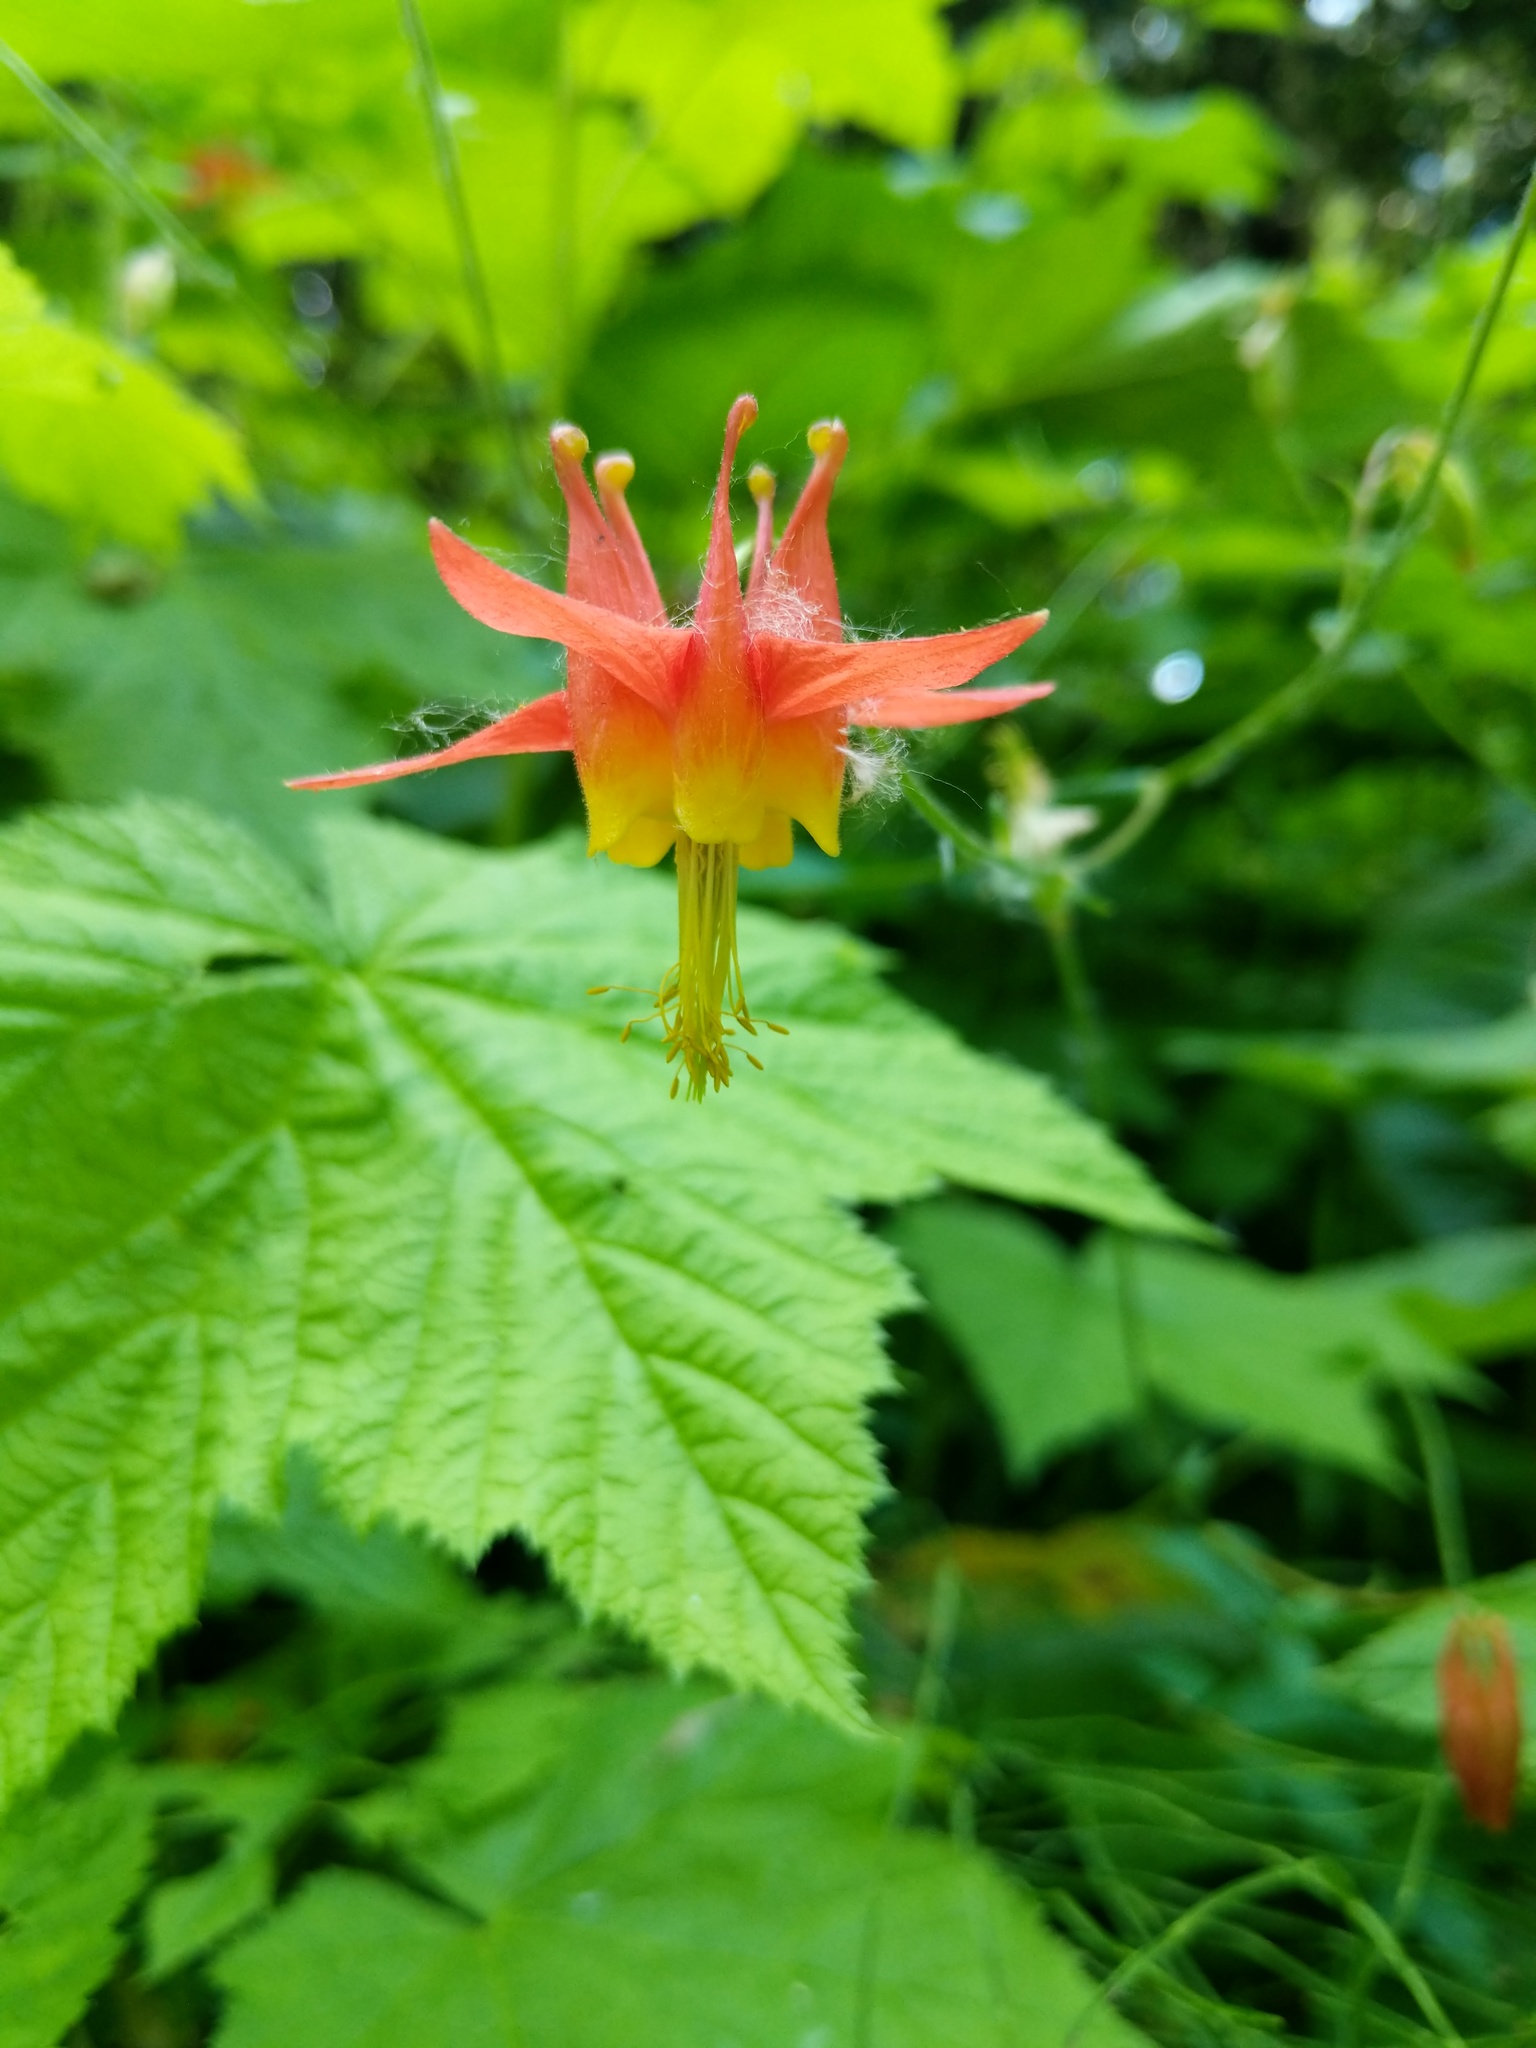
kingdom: Plantae
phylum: Tracheophyta
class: Magnoliopsida
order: Ranunculales
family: Ranunculaceae
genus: Aquilegia
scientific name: Aquilegia formosa
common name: Sitka columbine
